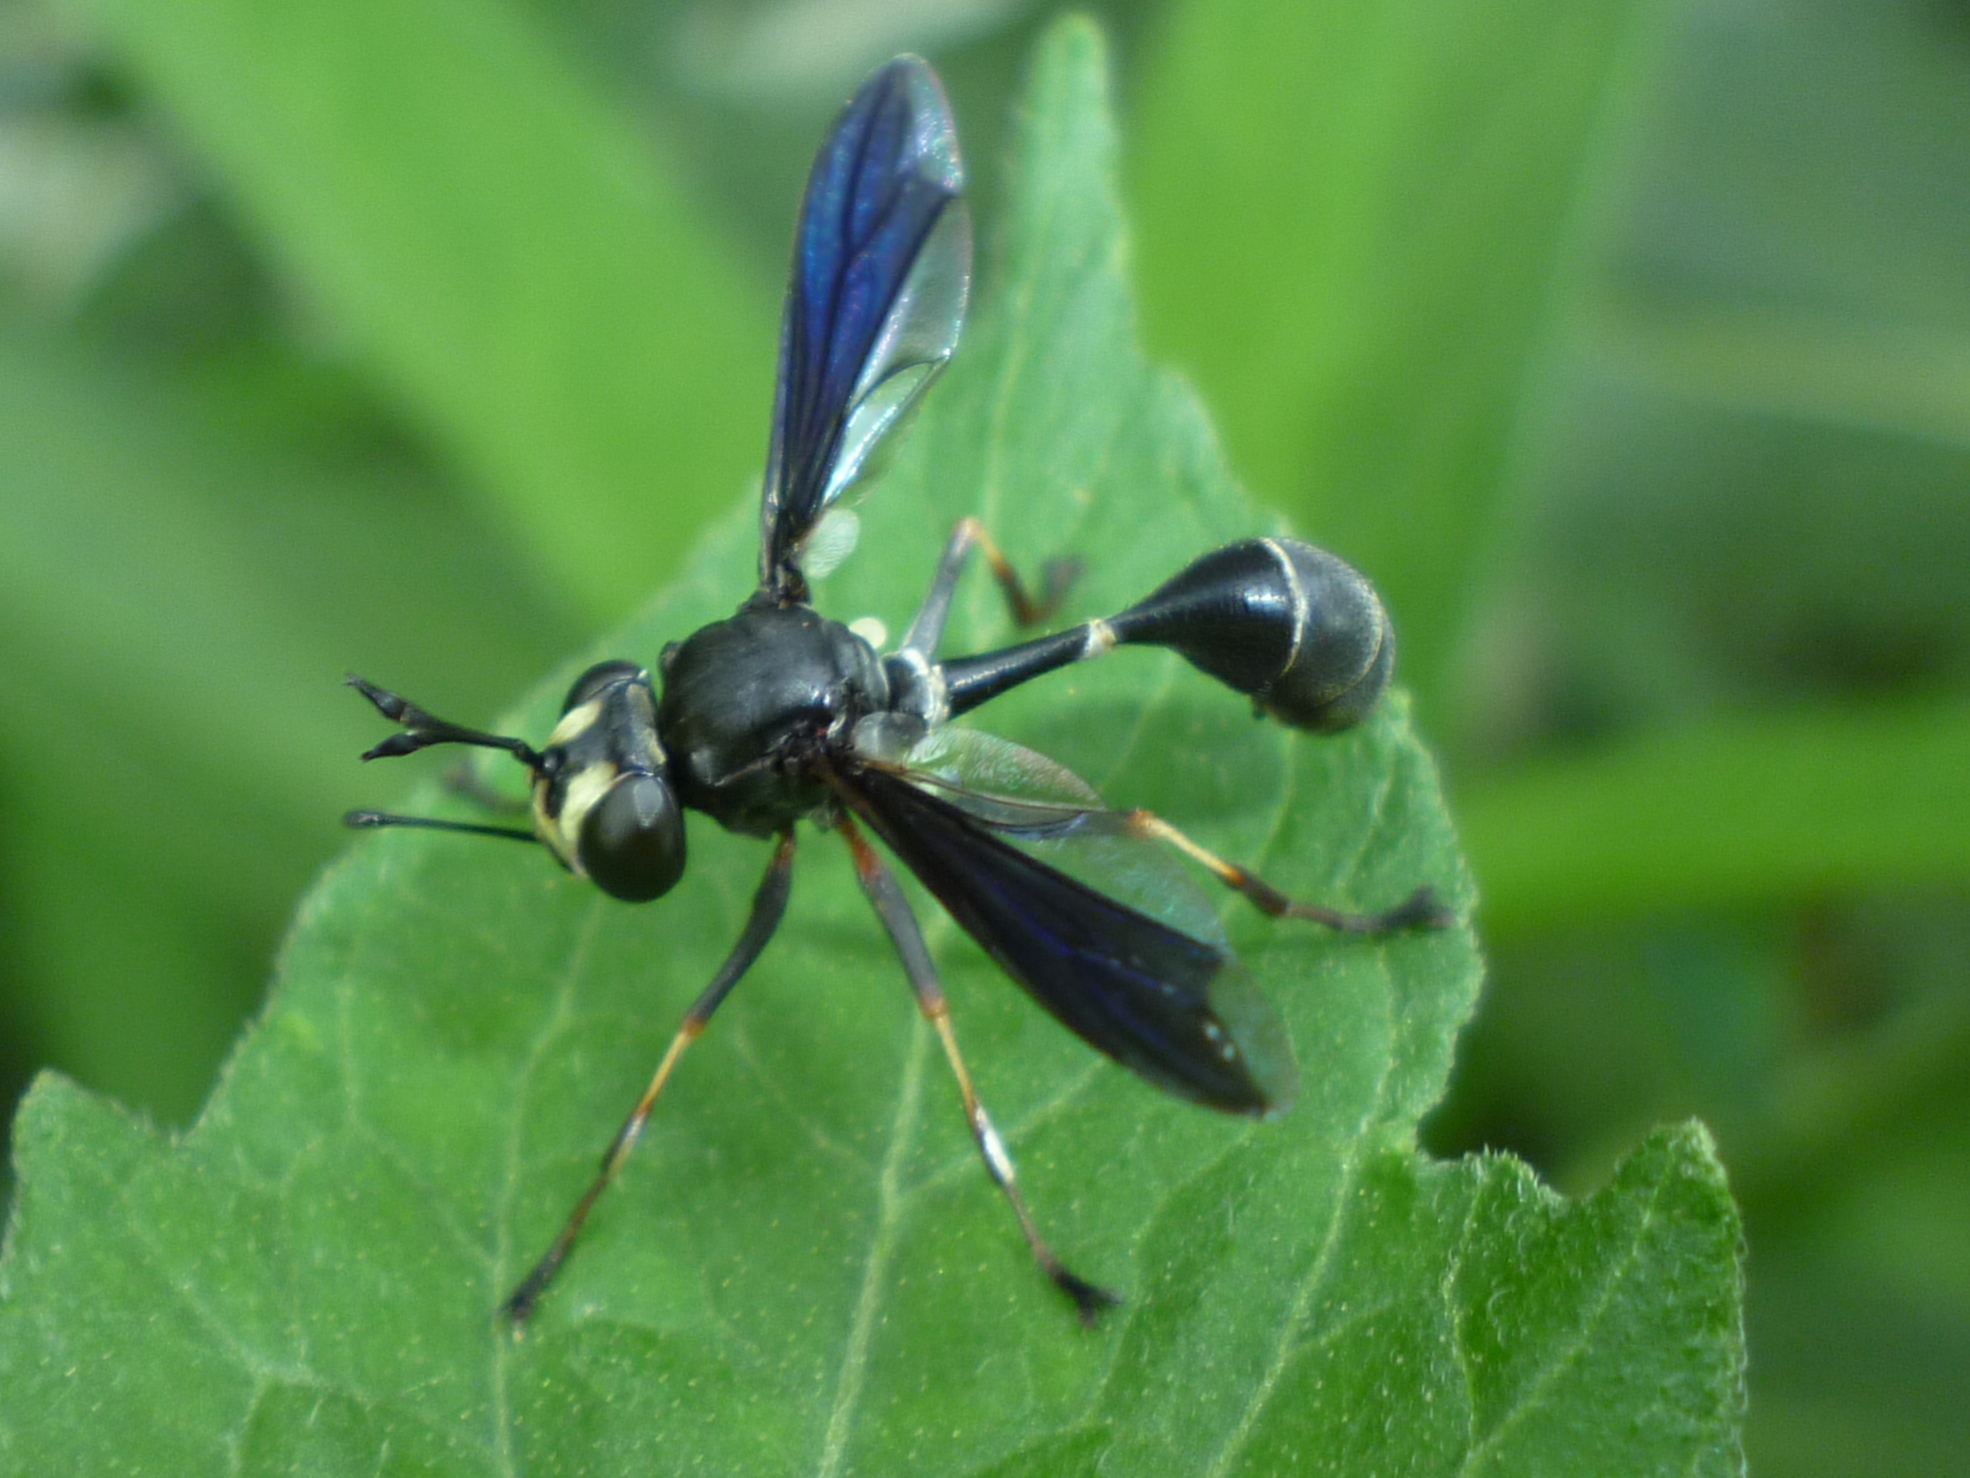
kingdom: Animalia
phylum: Arthropoda
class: Insecta
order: Diptera
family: Conopidae
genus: Physocephala
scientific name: Physocephala tibialis
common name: Common eastern physocephala
